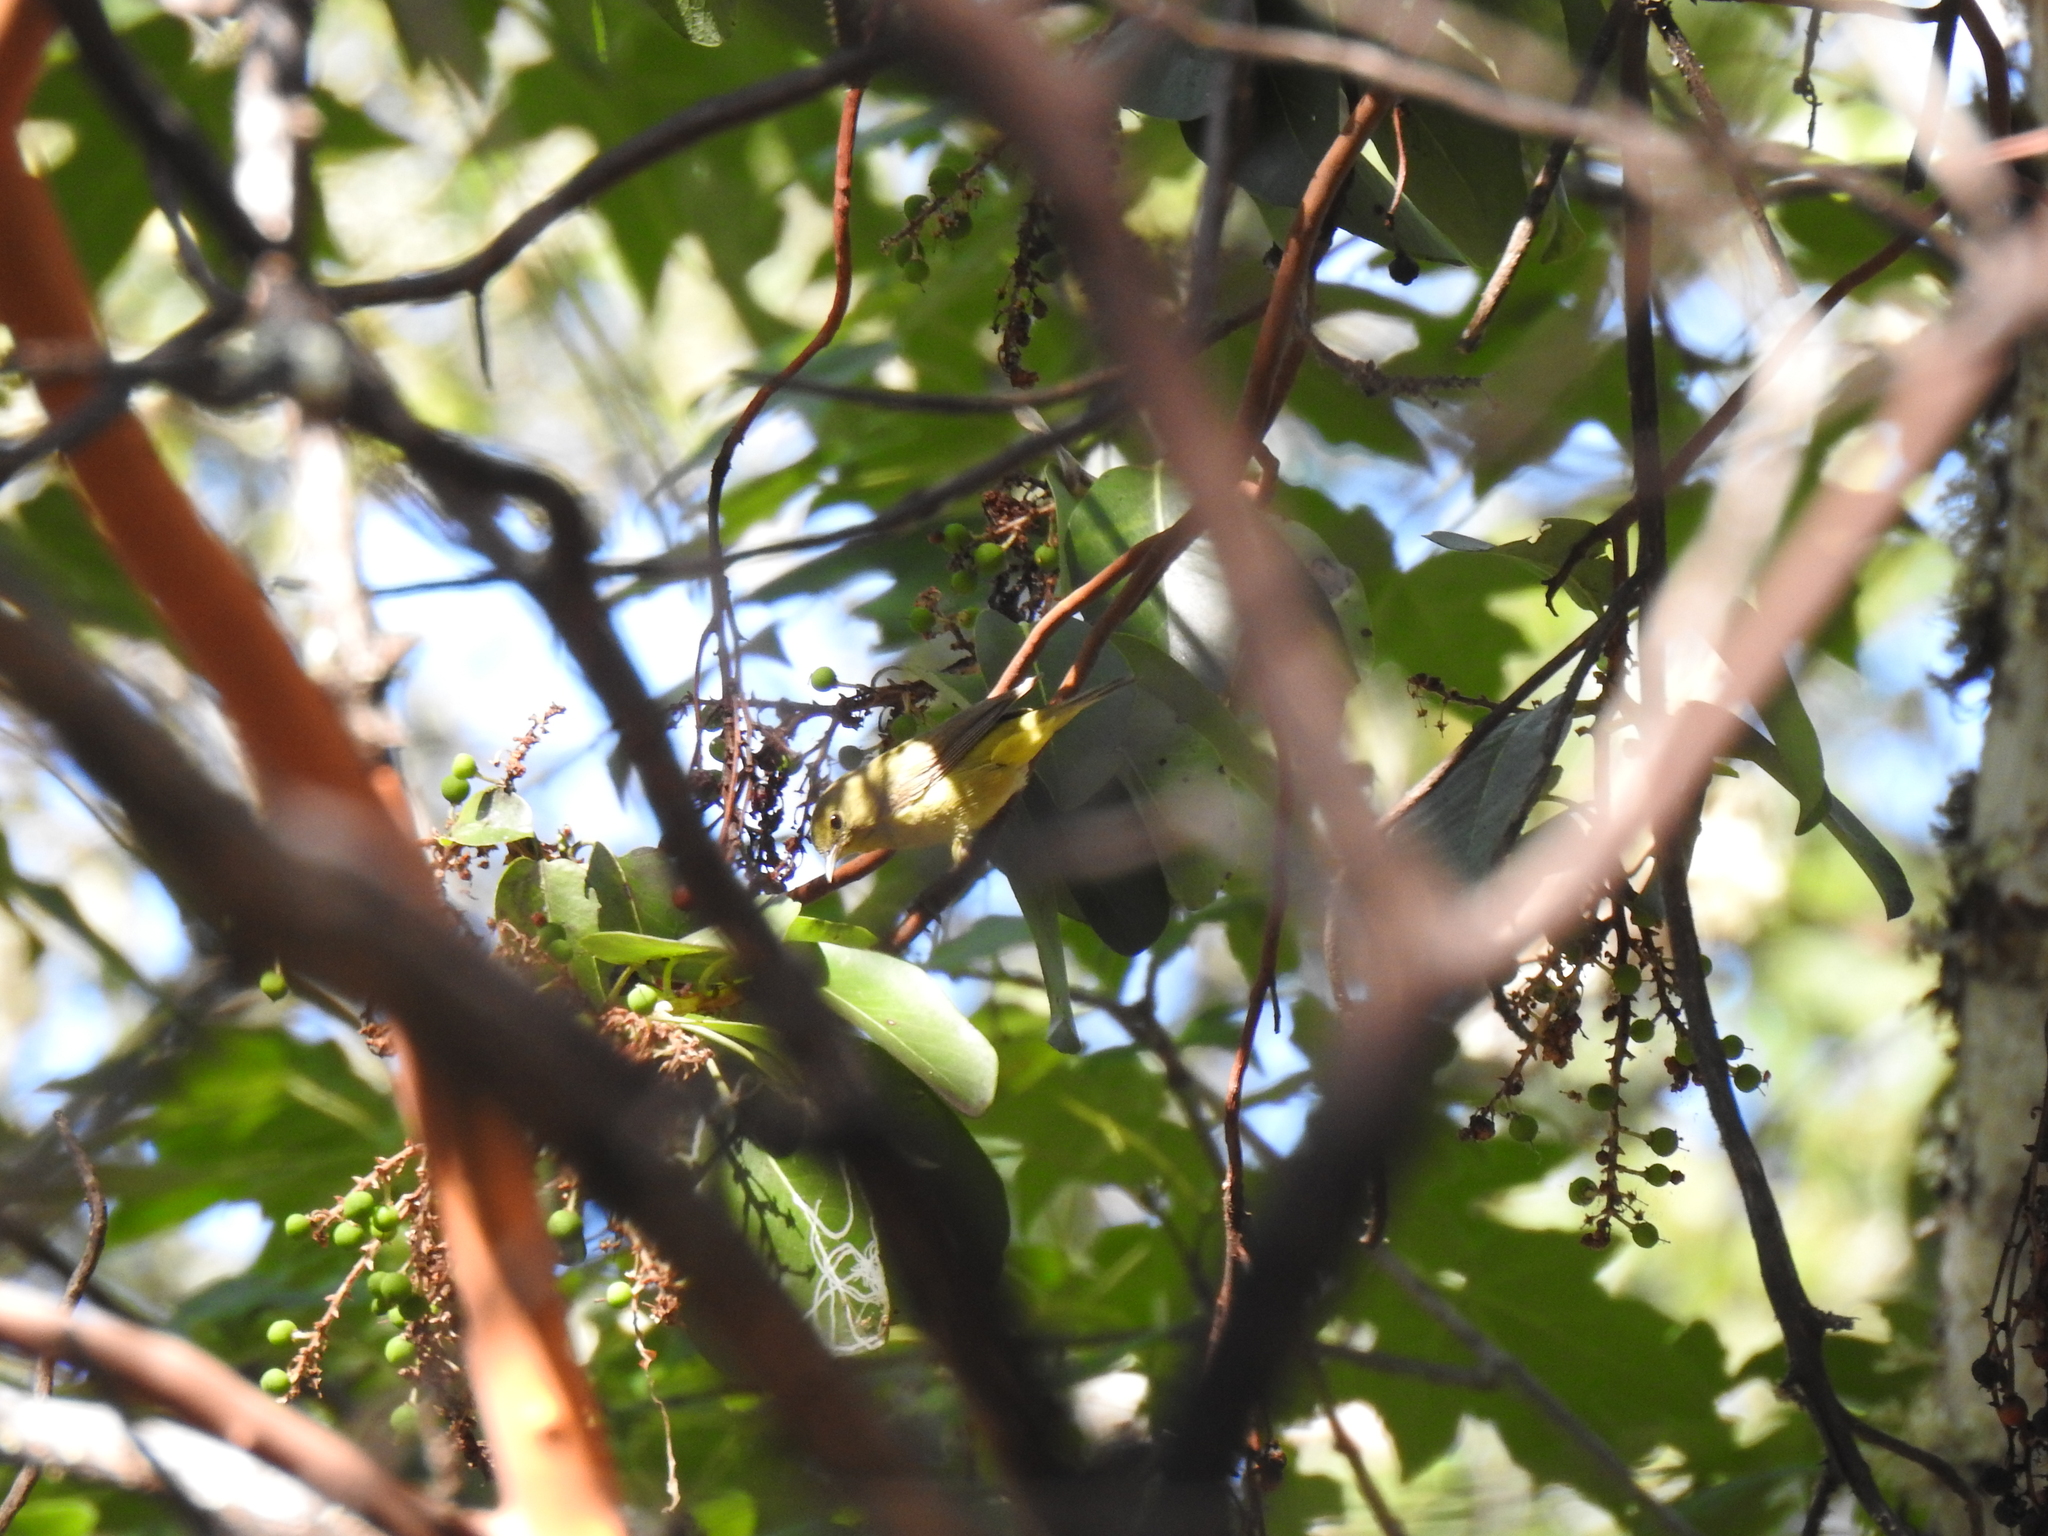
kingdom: Animalia
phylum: Chordata
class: Aves
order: Passeriformes
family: Parulidae
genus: Leiothlypis
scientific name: Leiothlypis celata
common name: Orange-crowned warbler
